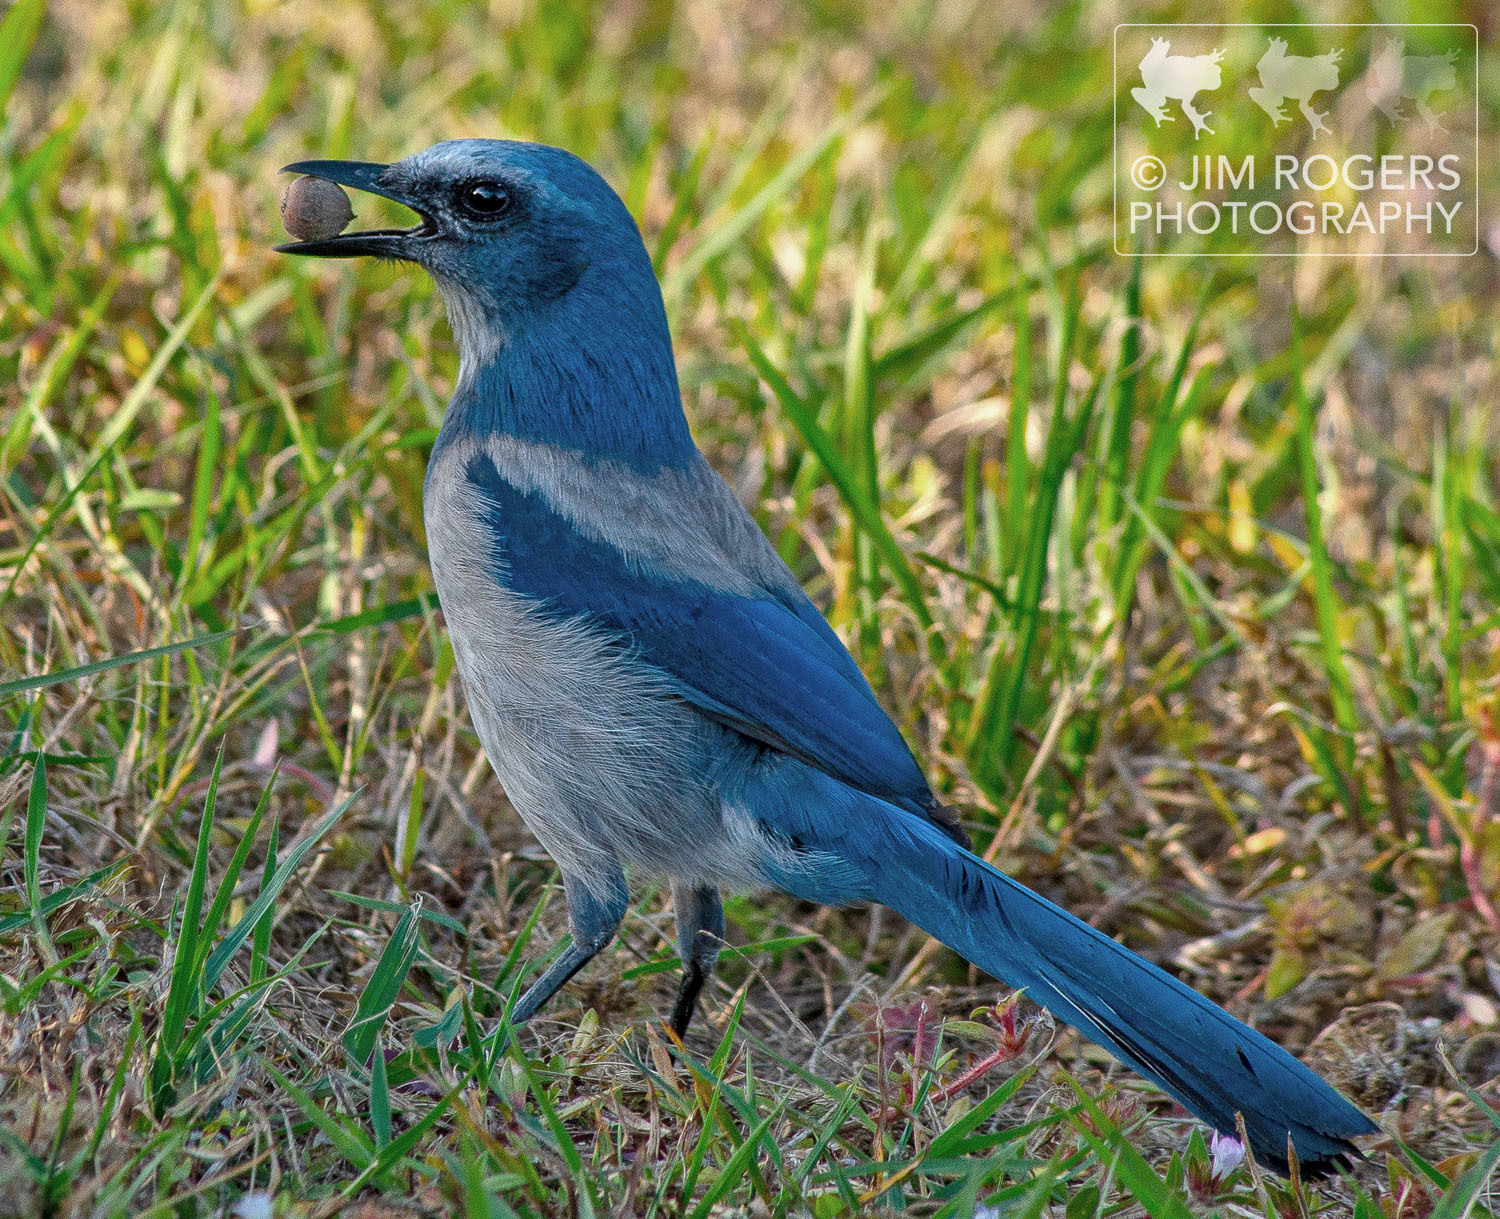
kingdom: Animalia
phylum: Chordata
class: Aves
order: Passeriformes
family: Corvidae
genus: Aphelocoma
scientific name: Aphelocoma coerulescens
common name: Florida scrub jay
